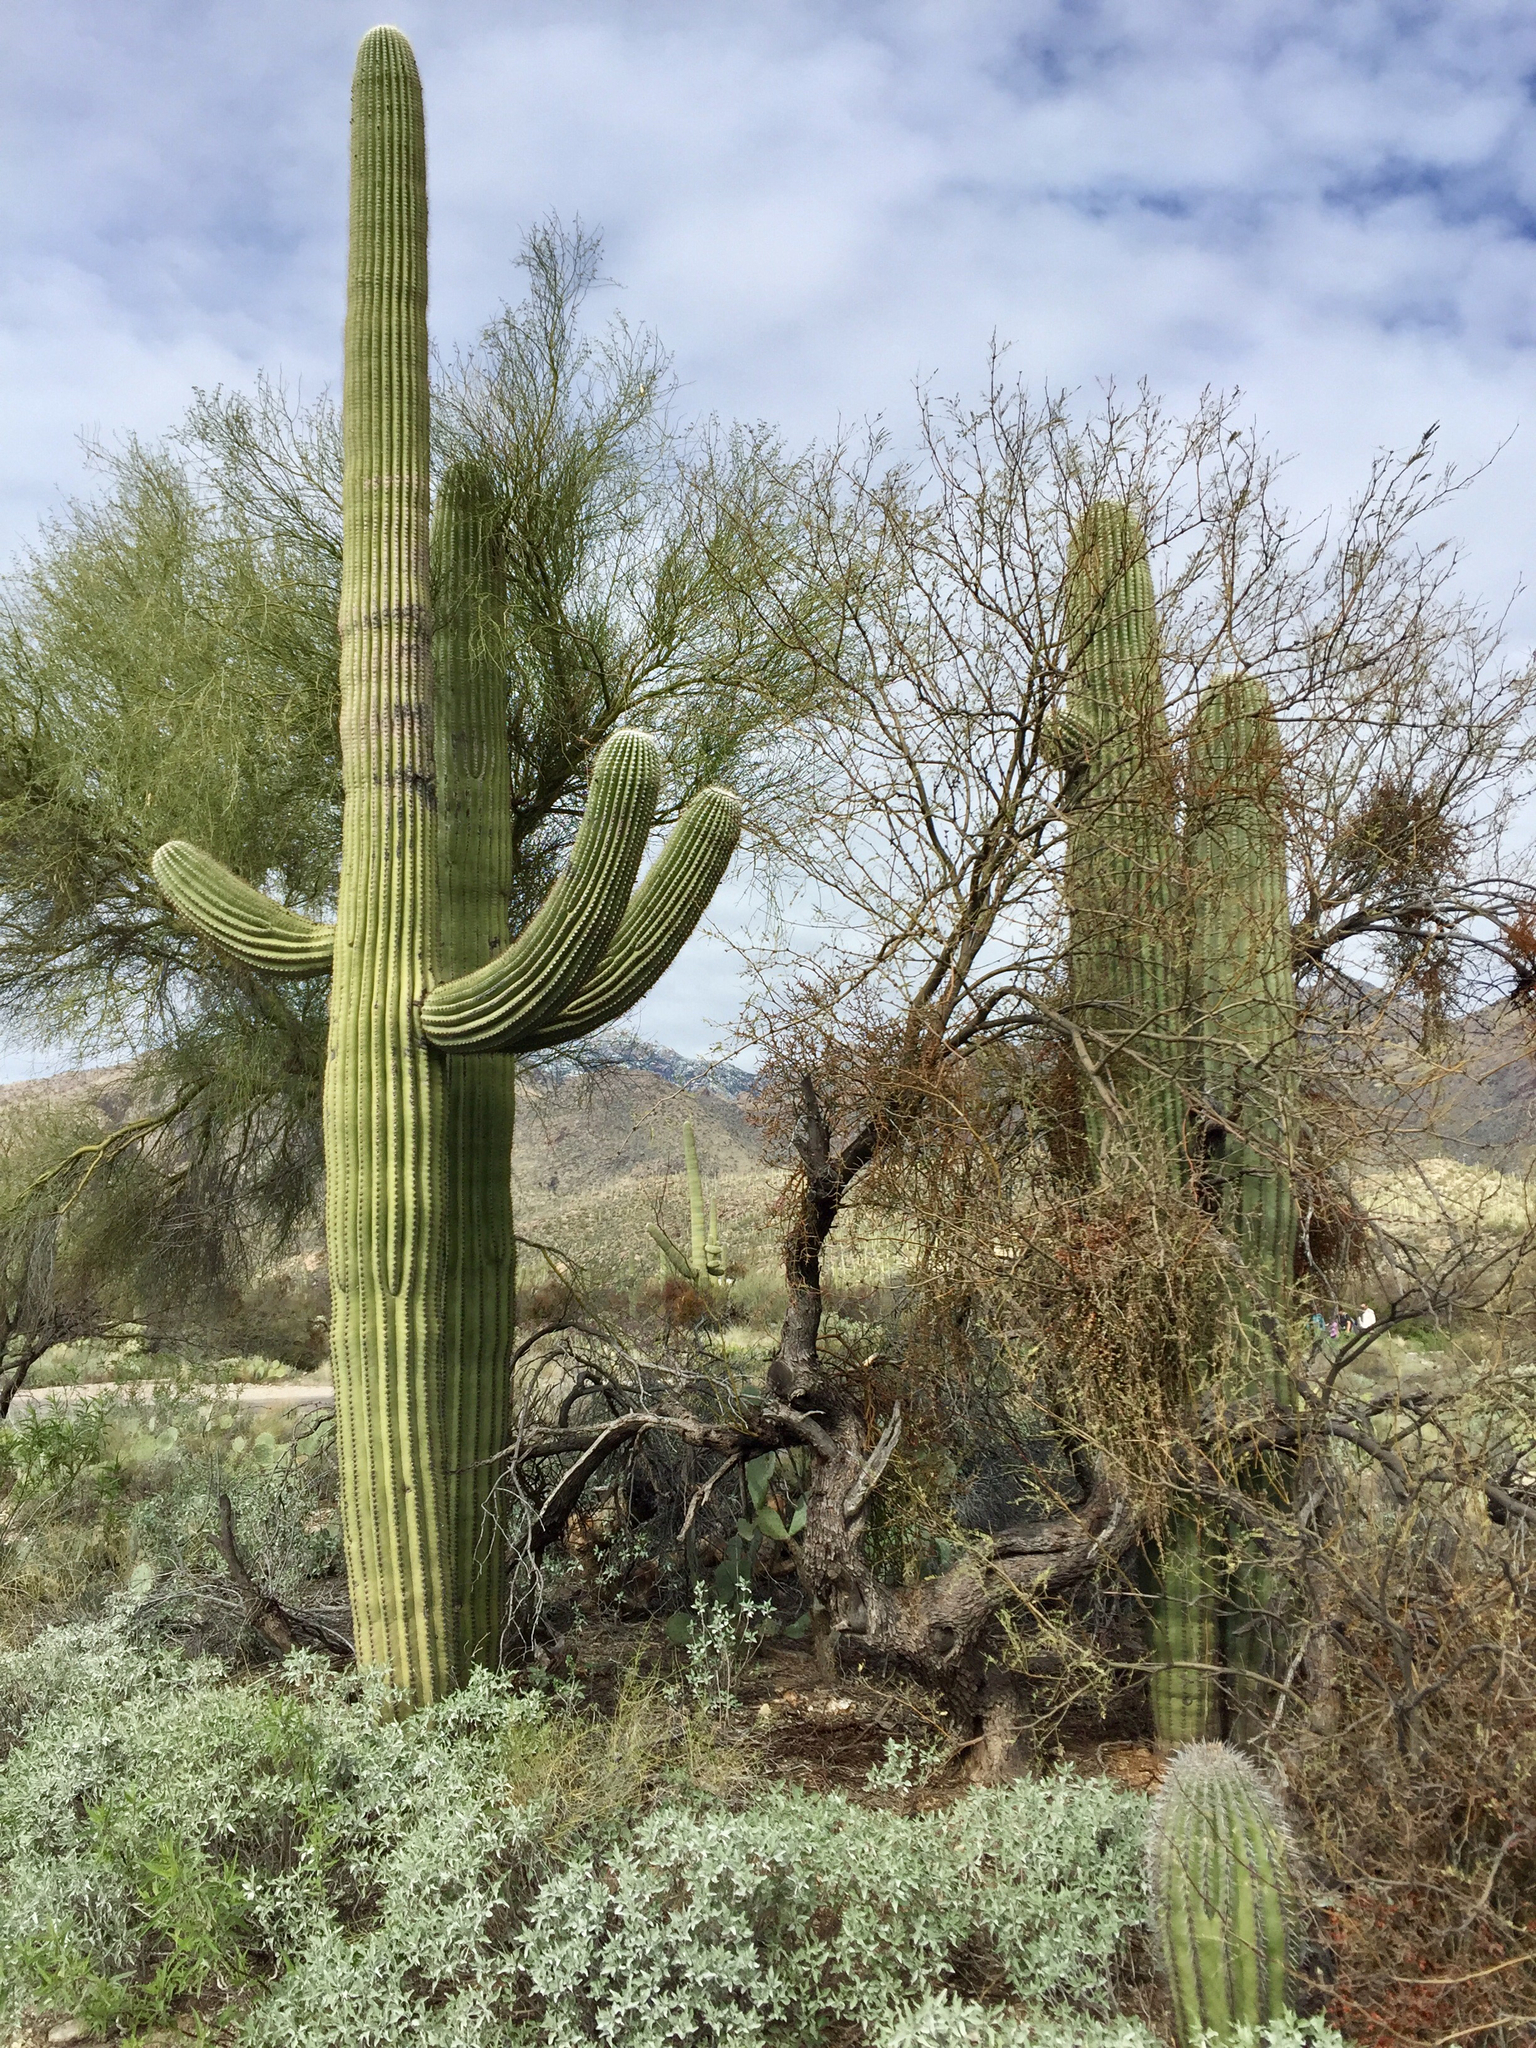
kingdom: Plantae
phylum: Tracheophyta
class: Magnoliopsida
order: Caryophyllales
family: Cactaceae
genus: Carnegiea
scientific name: Carnegiea gigantea
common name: Saguaro
